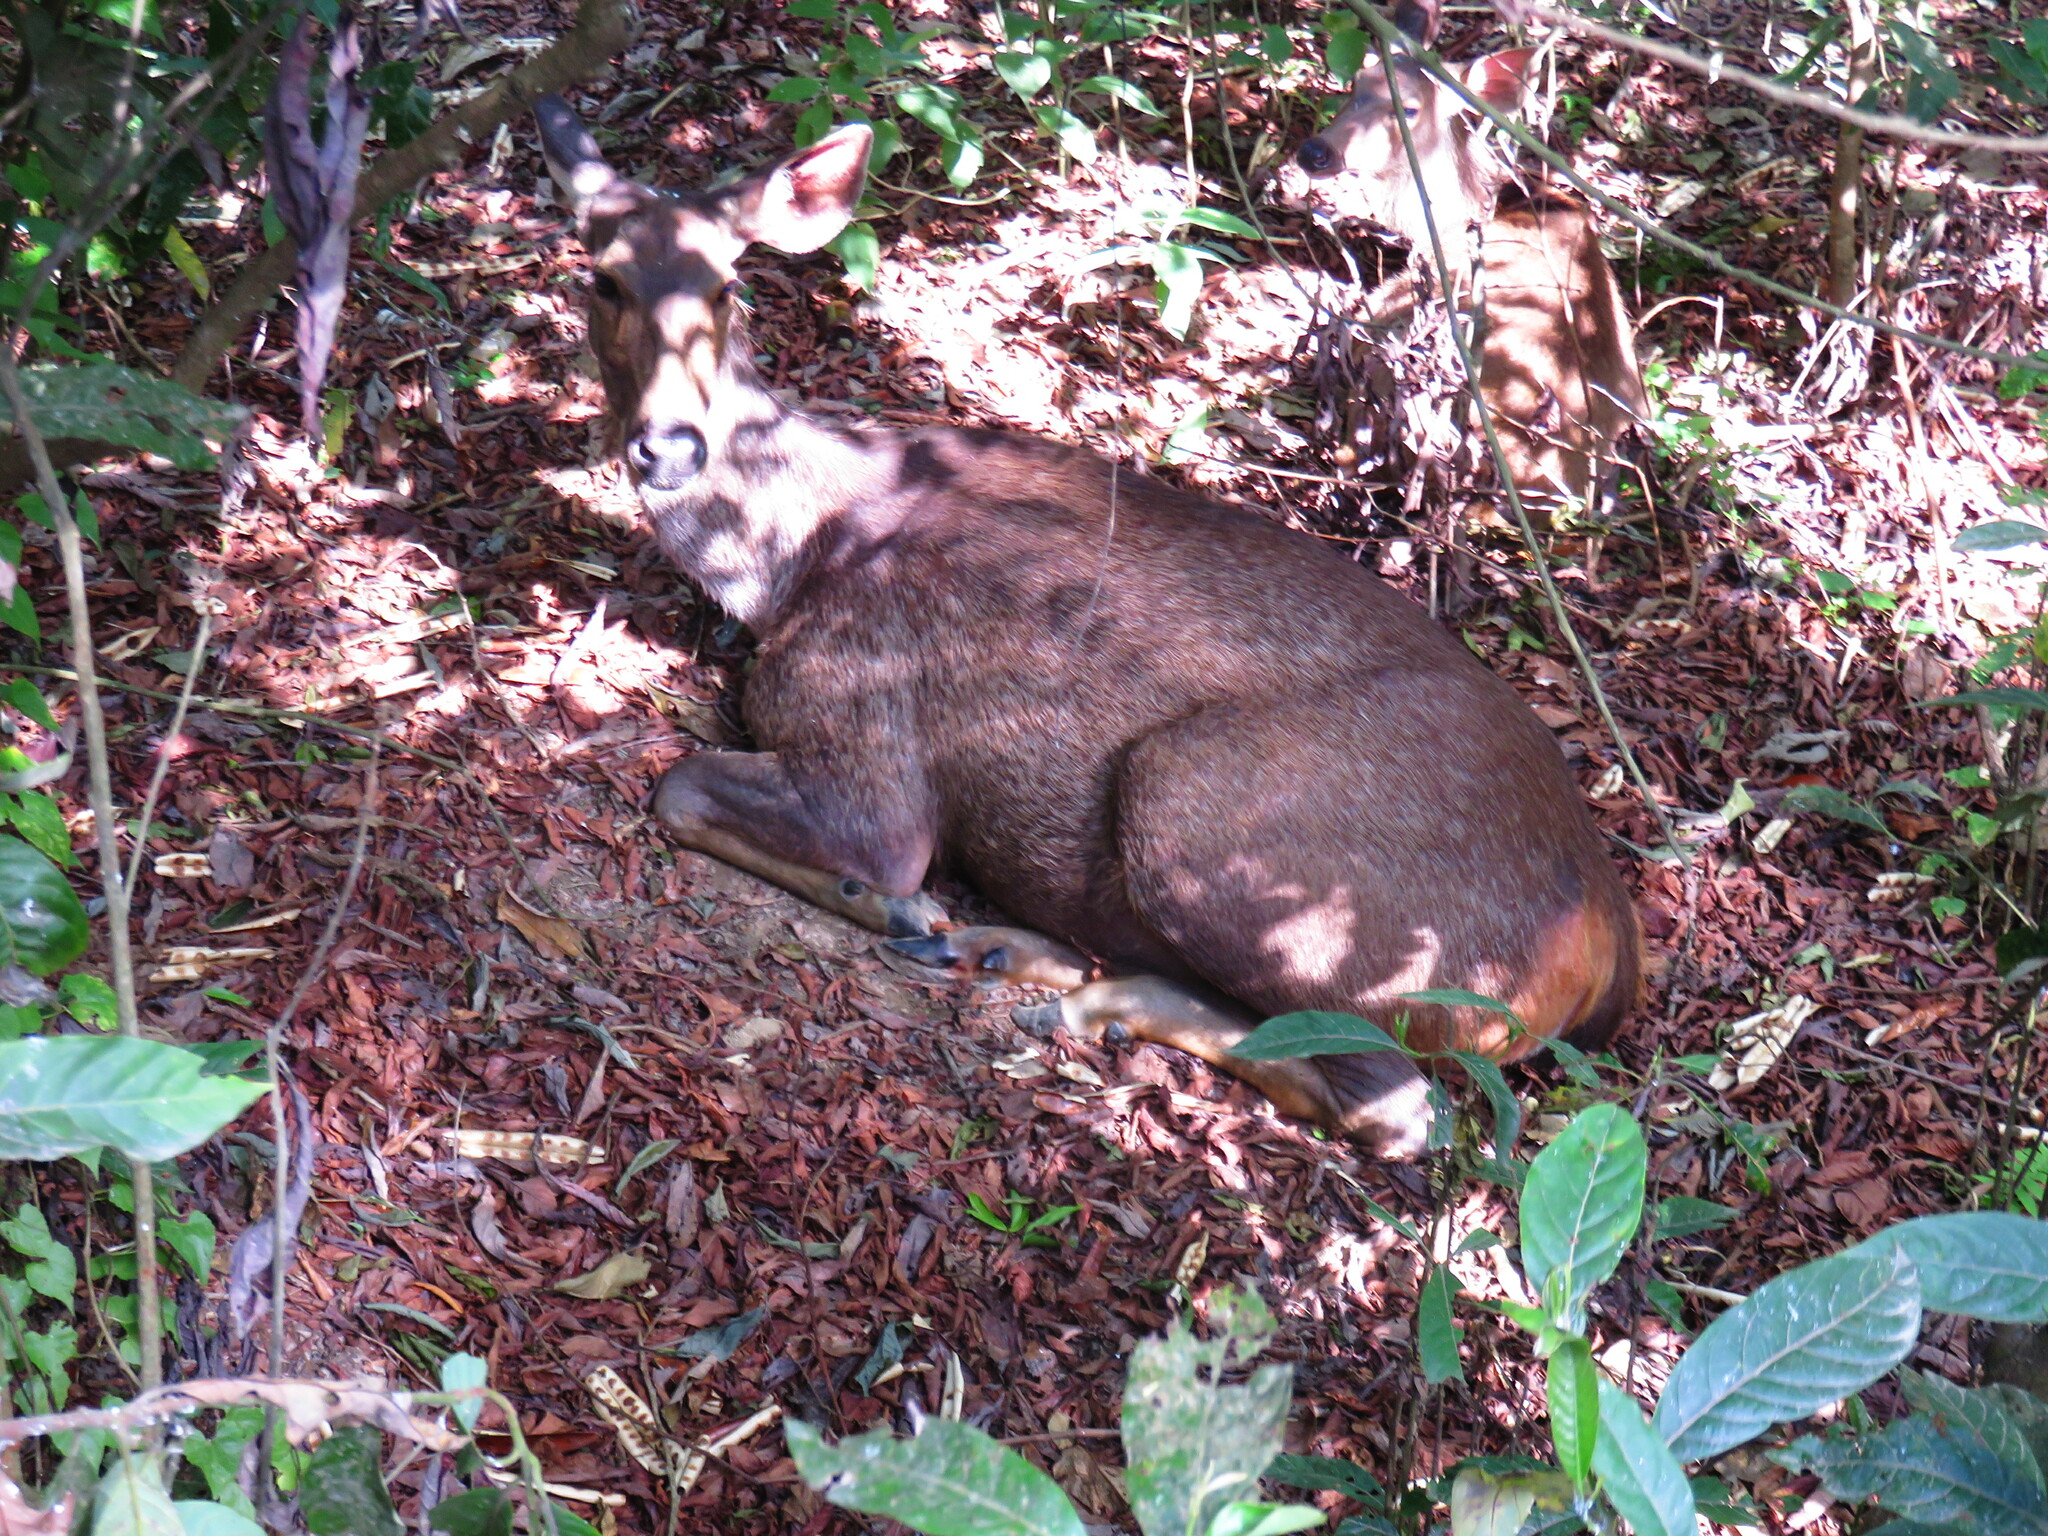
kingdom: Animalia
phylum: Chordata
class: Mammalia
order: Artiodactyla
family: Cervidae
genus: Rusa
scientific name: Rusa unicolor
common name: Sambar
